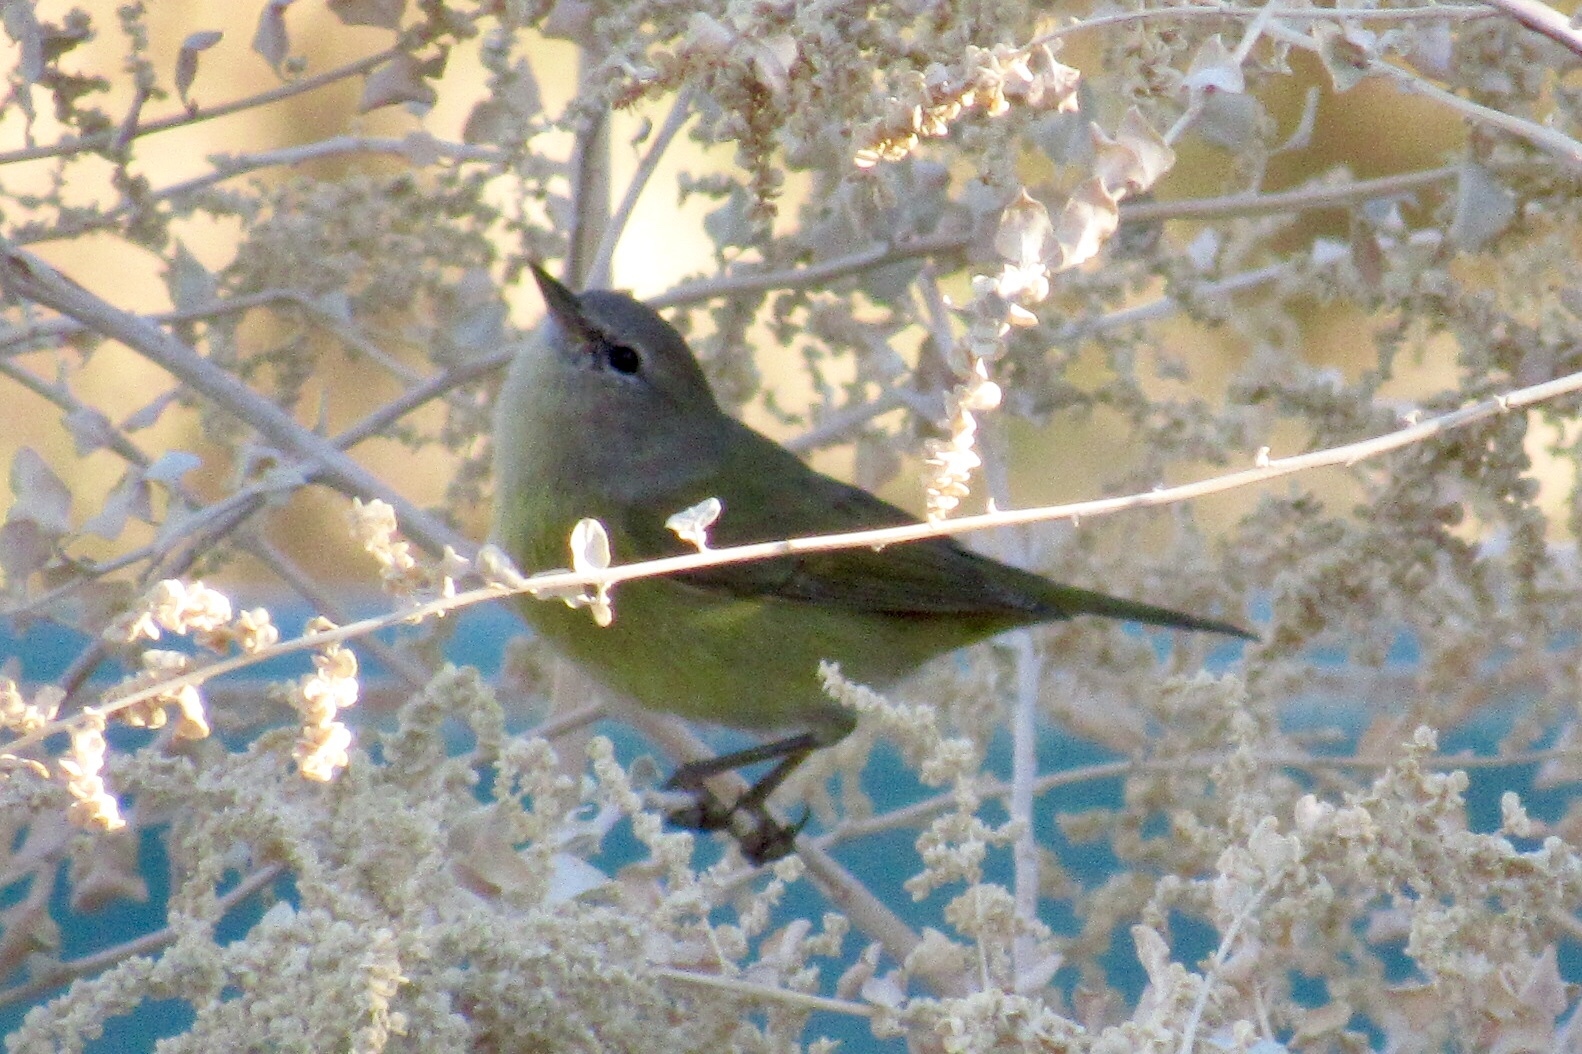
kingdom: Animalia
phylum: Chordata
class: Aves
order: Passeriformes
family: Parulidae
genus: Leiothlypis
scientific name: Leiothlypis celata
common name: Orange-crowned warbler
